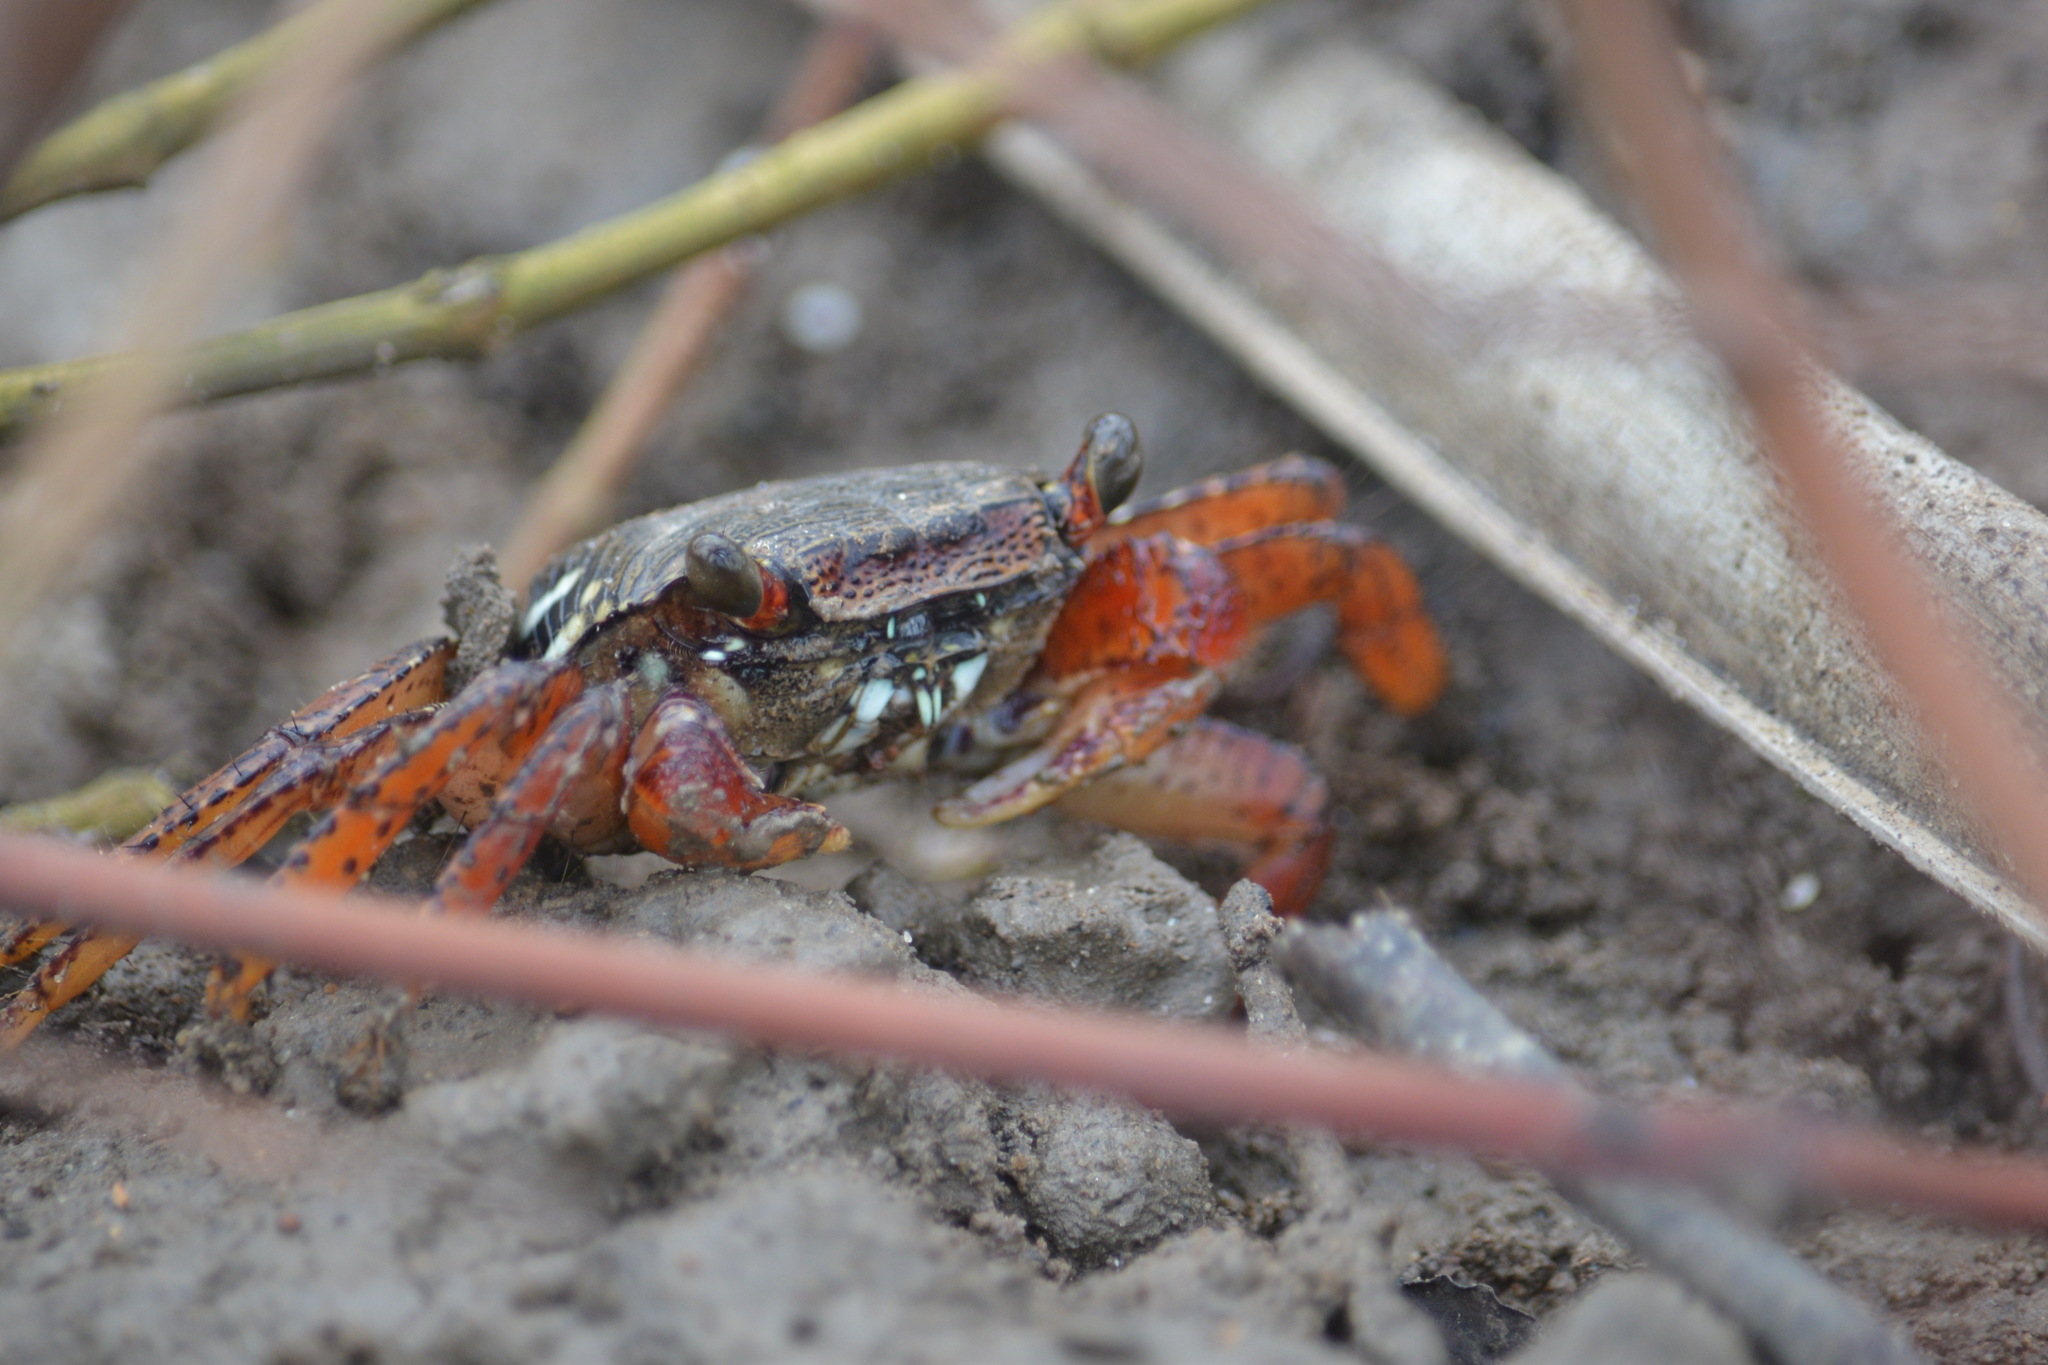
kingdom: Animalia
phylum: Arthropoda
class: Malacostraca
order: Decapoda
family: Grapsidae
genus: Goniopsis
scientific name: Goniopsis cruentata
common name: Mangrove crab
